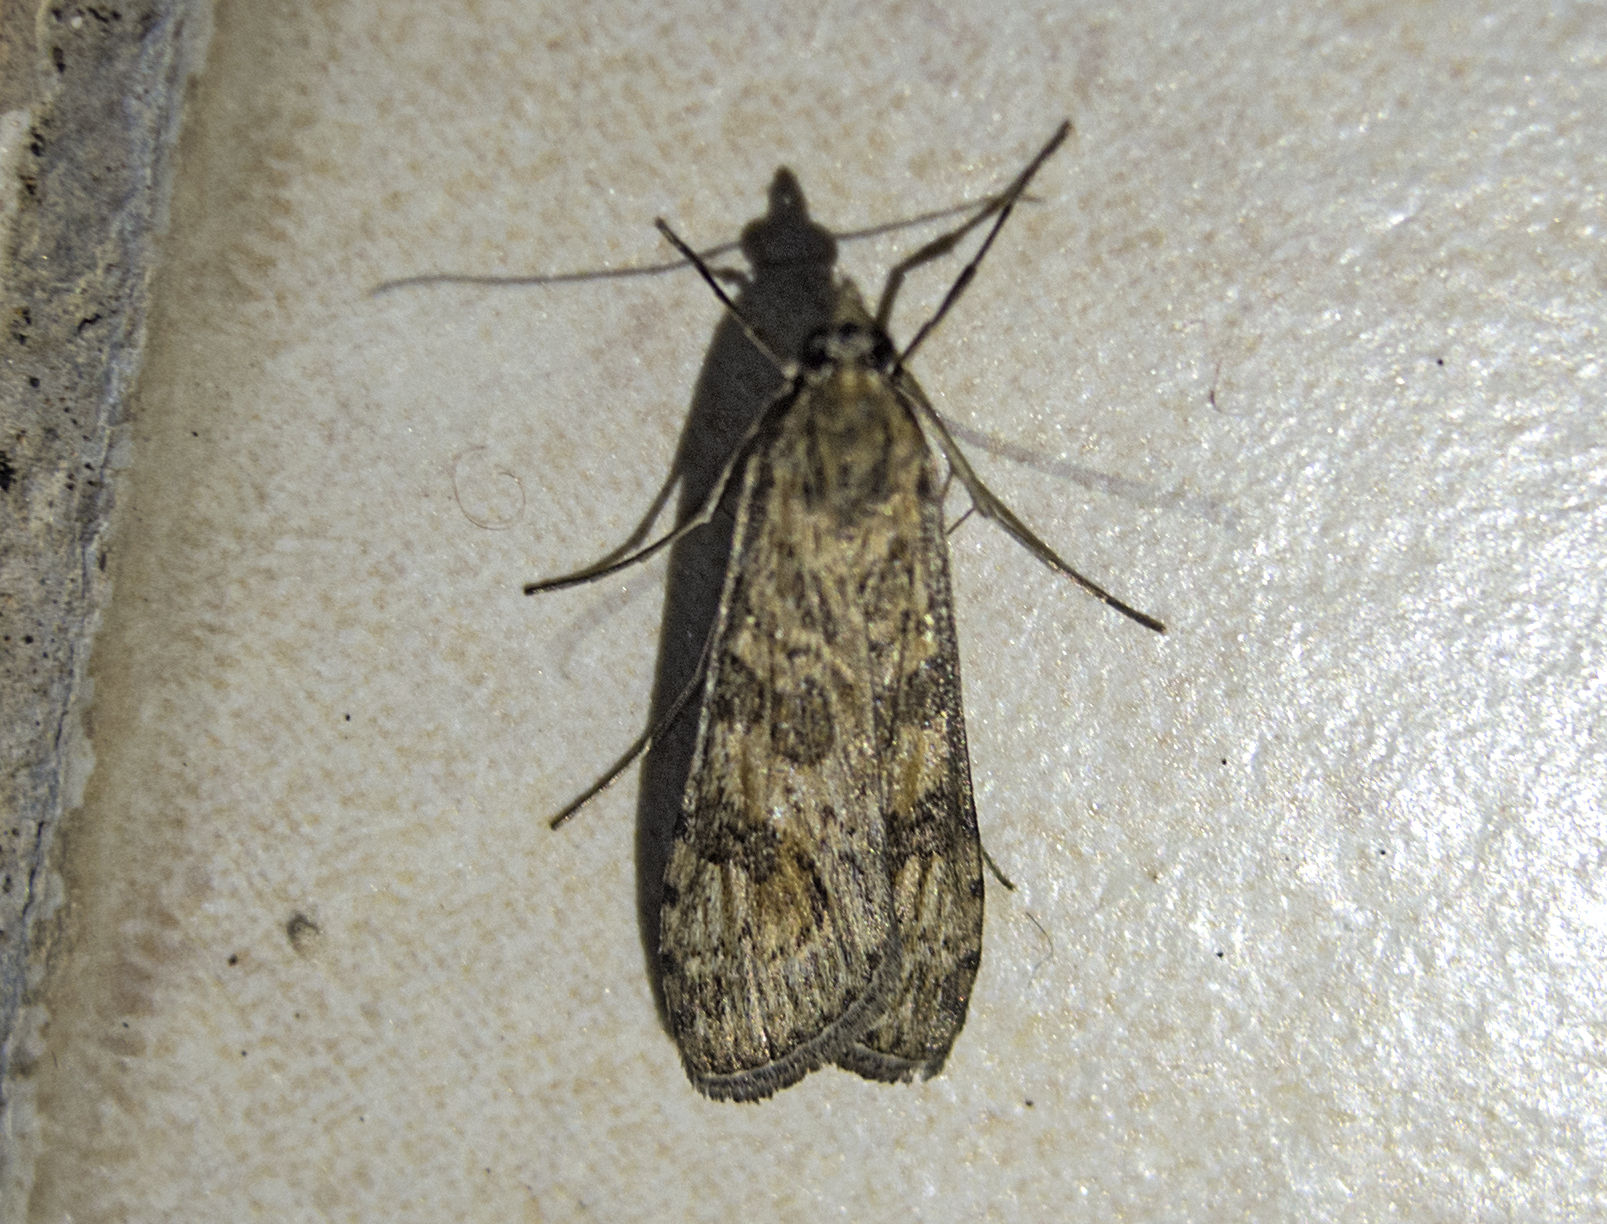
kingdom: Animalia
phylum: Arthropoda
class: Insecta
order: Lepidoptera
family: Crambidae
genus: Nomophila
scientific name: Nomophila noctuella
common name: Rush veneer
